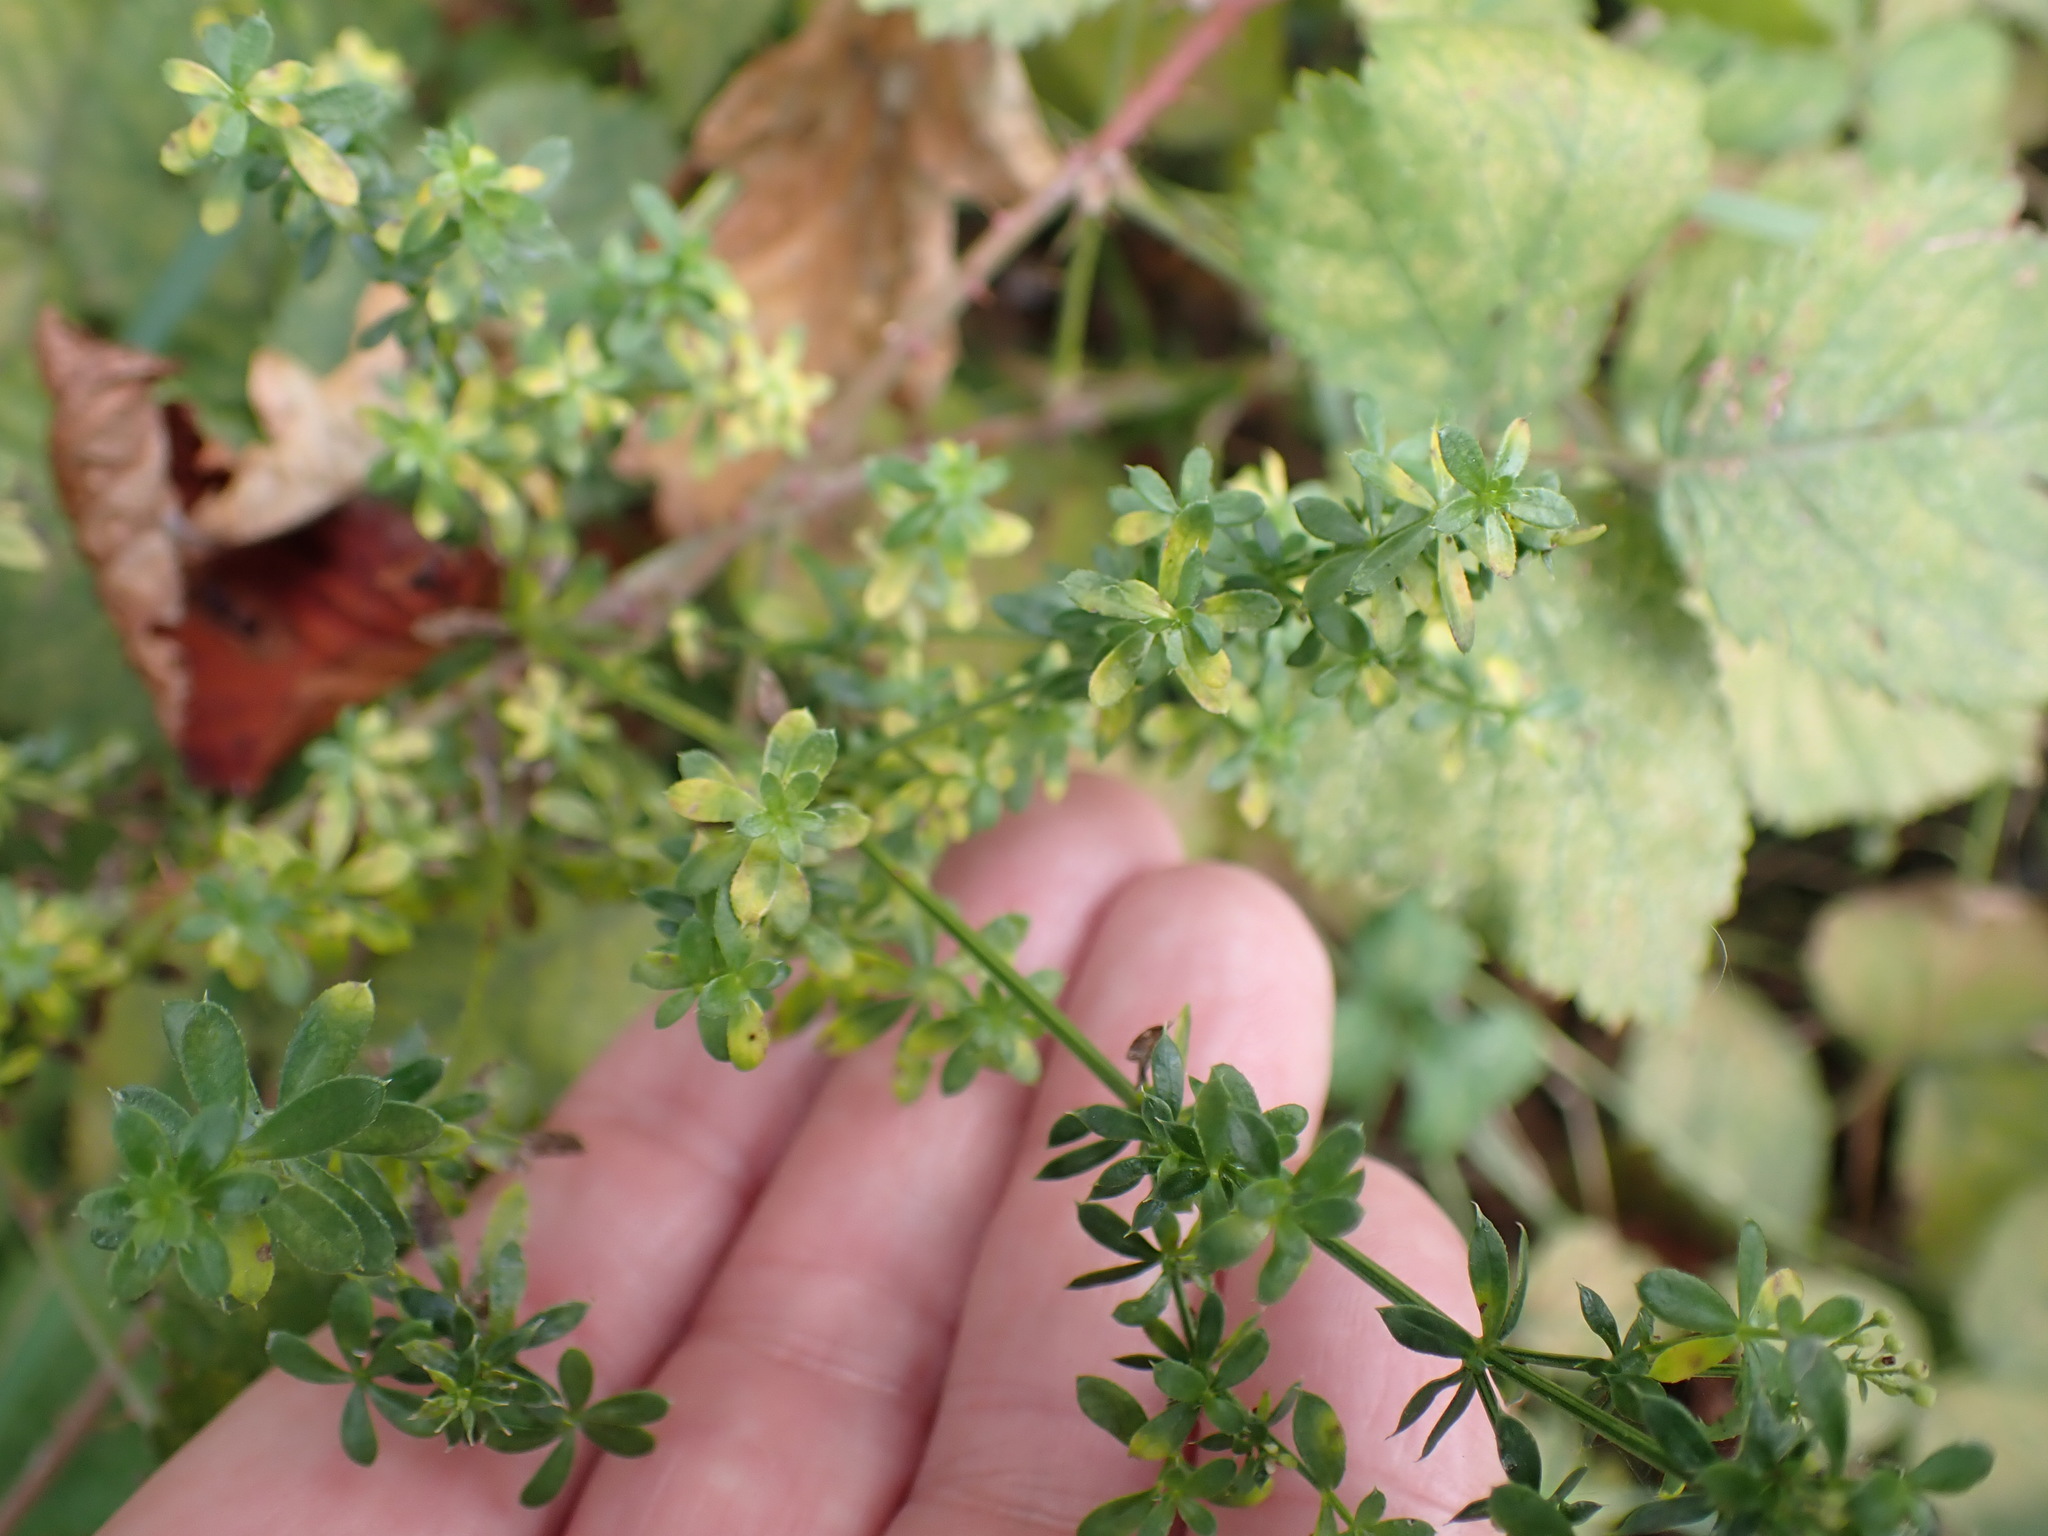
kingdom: Plantae
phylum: Tracheophyta
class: Magnoliopsida
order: Gentianales
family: Rubiaceae
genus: Galium
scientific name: Galium album
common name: White bedstraw
